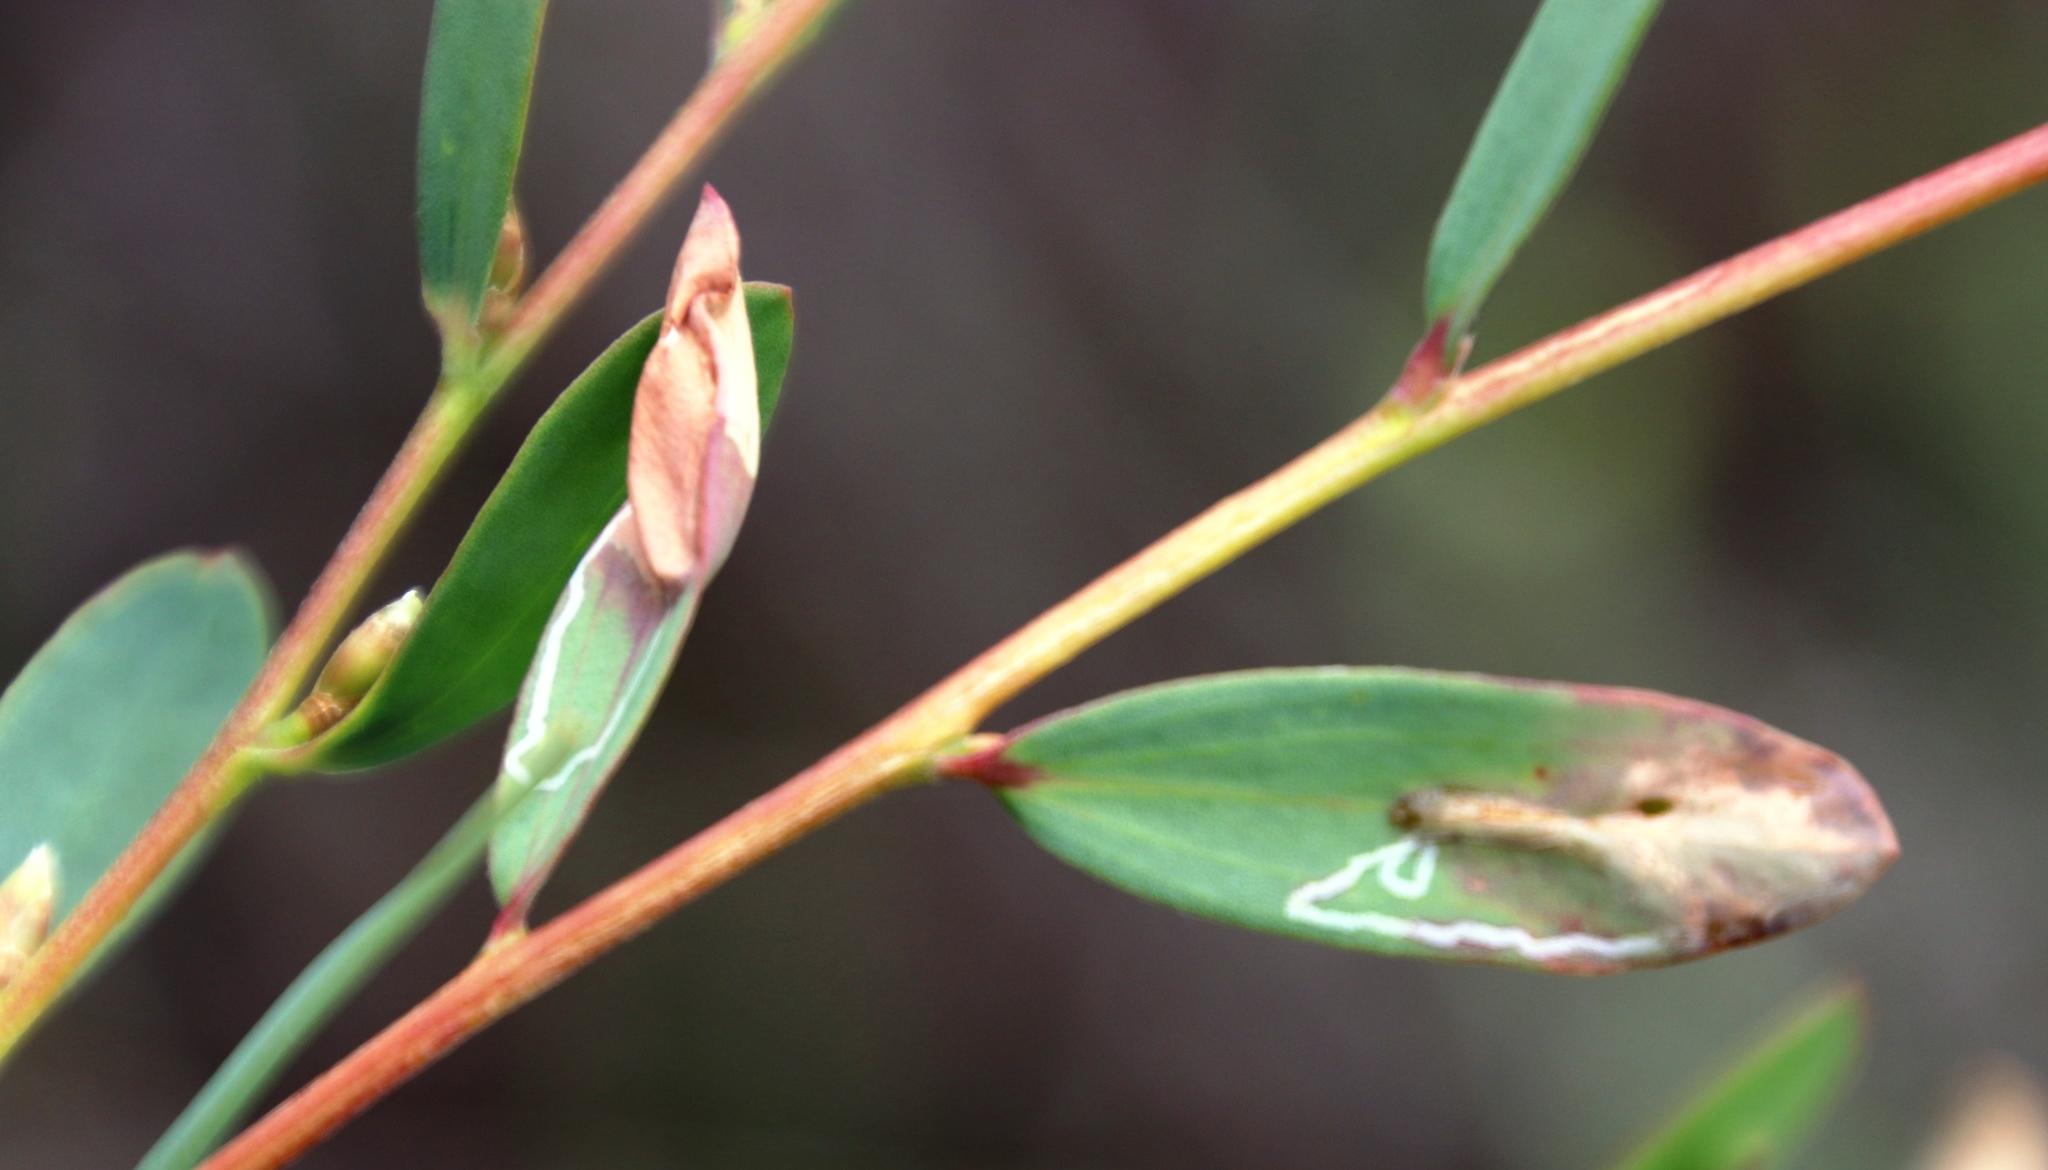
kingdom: Plantae
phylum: Tracheophyta
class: Magnoliopsida
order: Myrtales
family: Myrtaceae
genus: Leptospermum
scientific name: Leptospermum laevigatum
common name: Australian teatree
